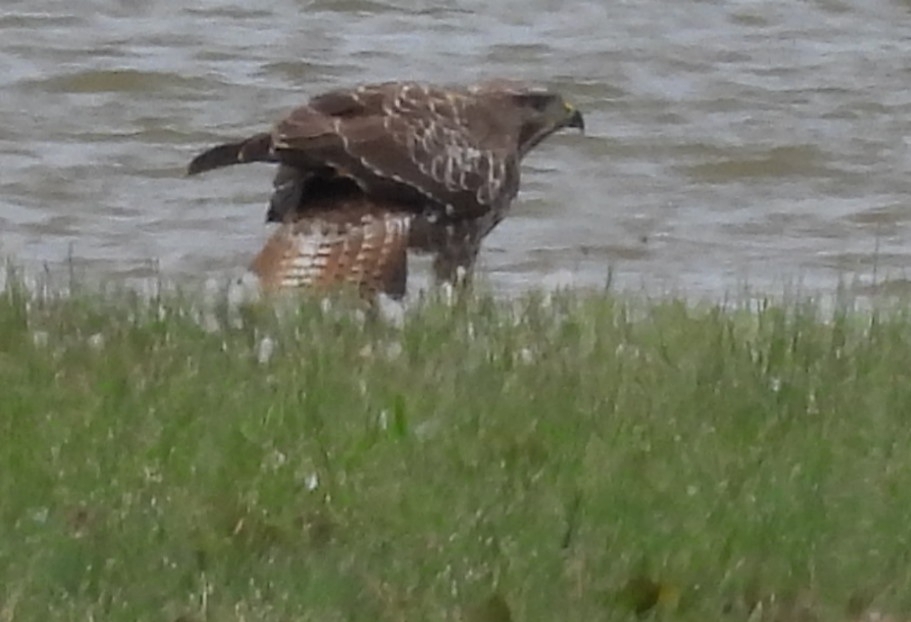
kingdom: Animalia
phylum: Chordata
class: Aves
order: Accipitriformes
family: Accipitridae
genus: Buteo
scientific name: Buteo buteo
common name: Common buzzard
